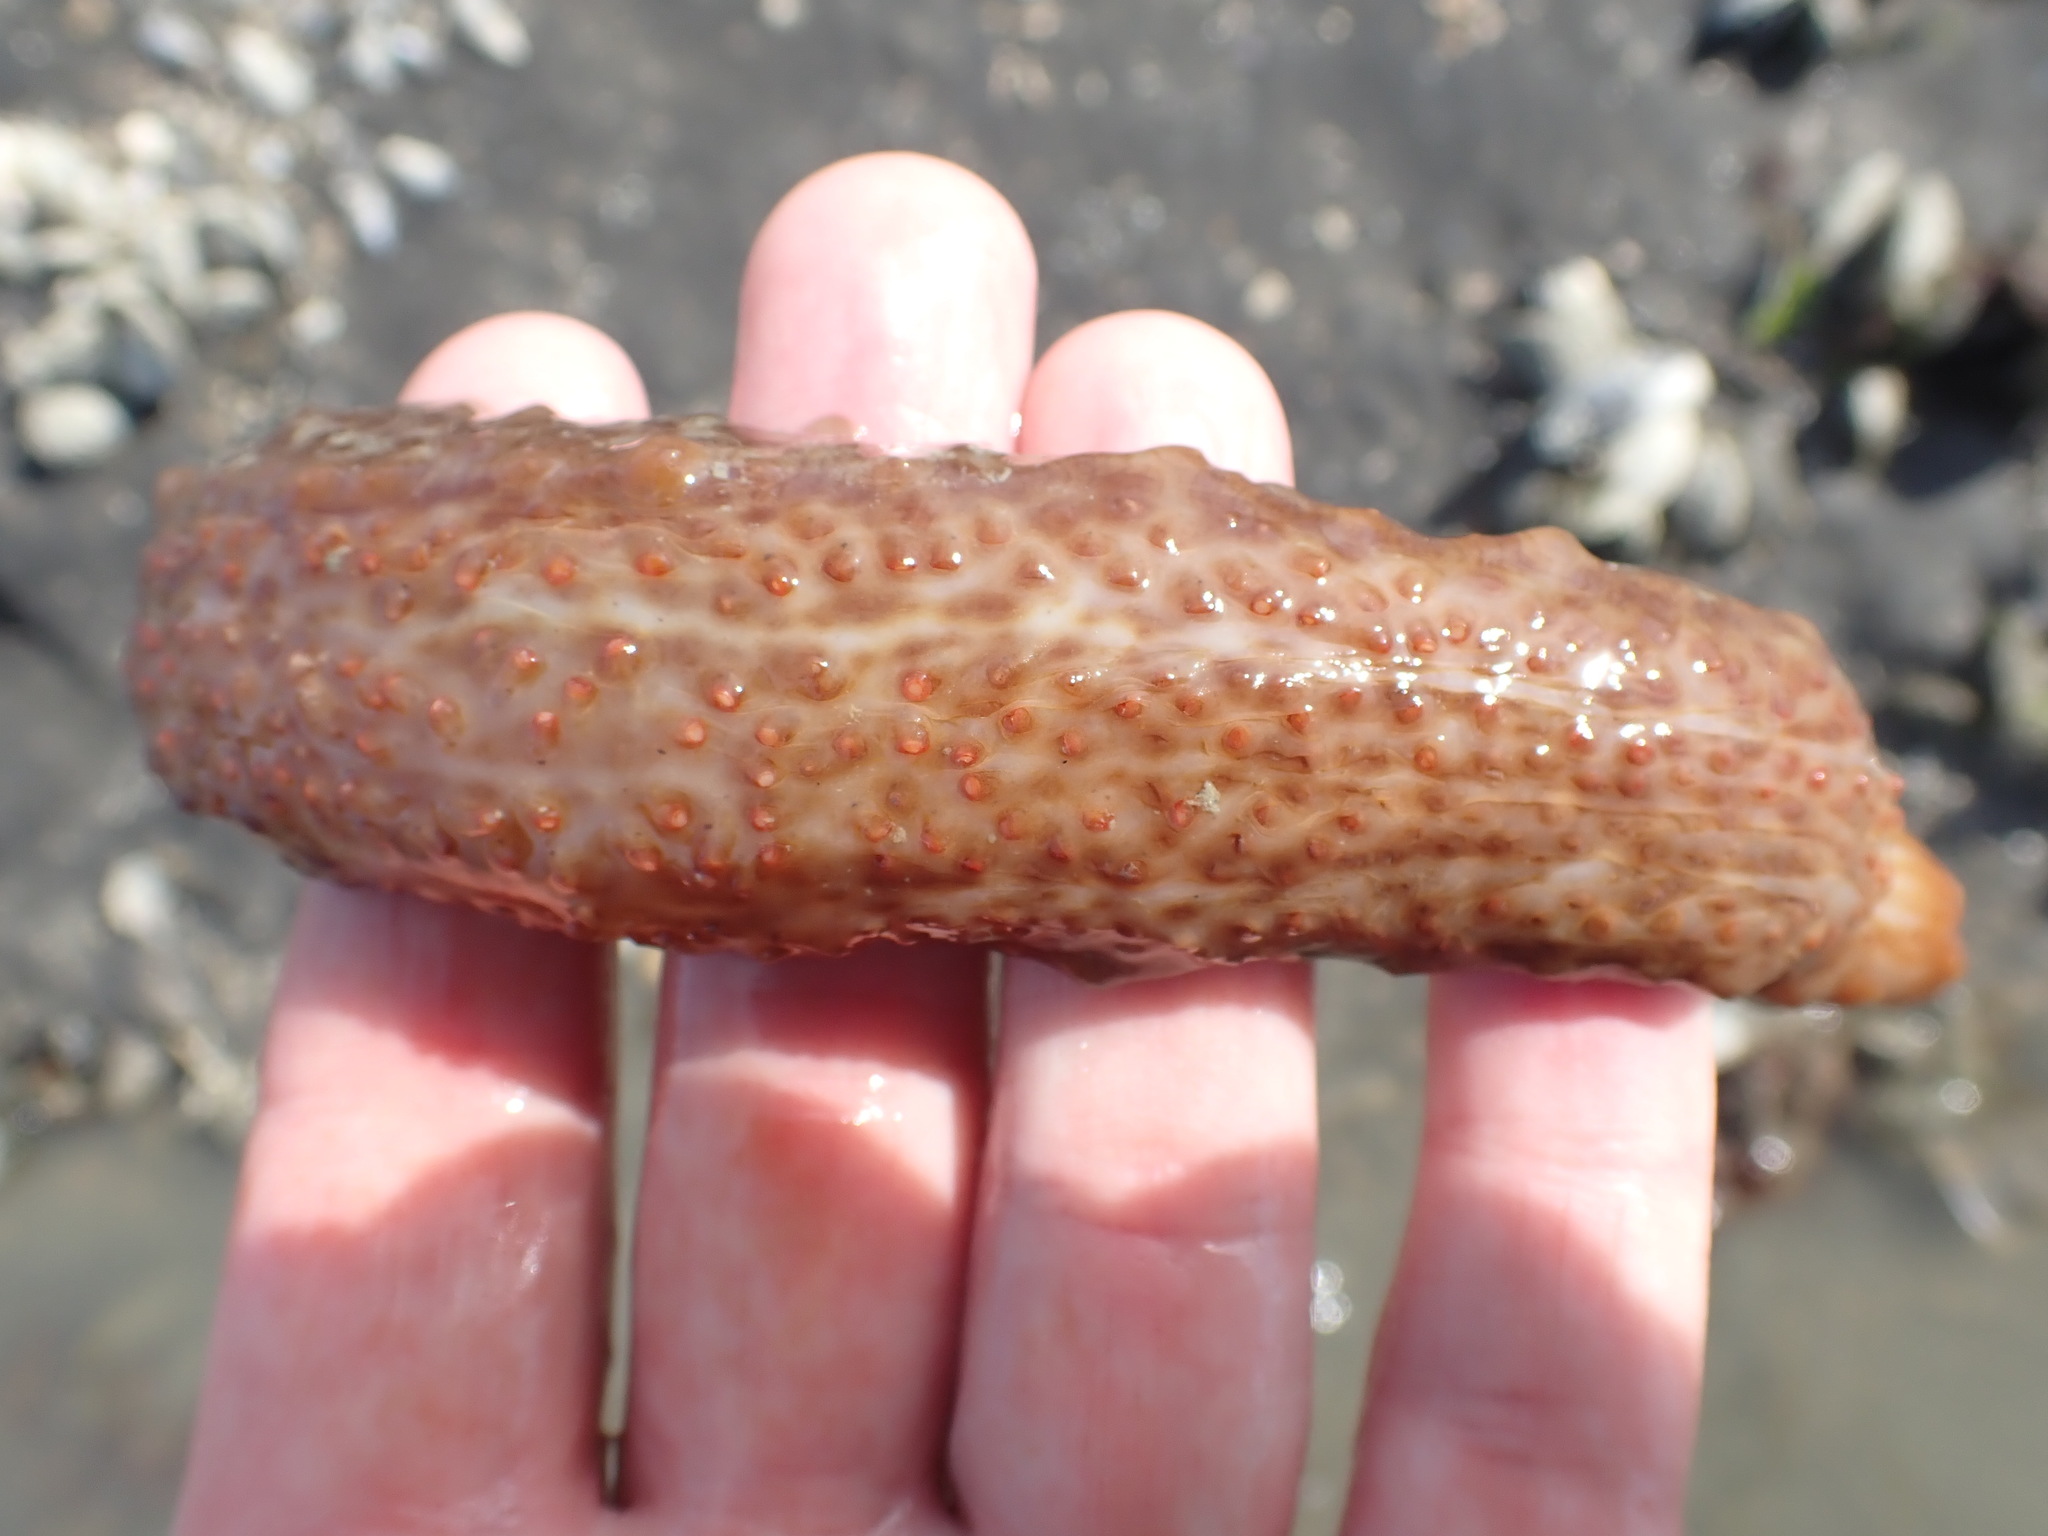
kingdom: Animalia
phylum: Echinodermata
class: Holothuroidea
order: Synallactida
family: Stichopodidae
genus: Australostichopus
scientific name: Australostichopus mollis
